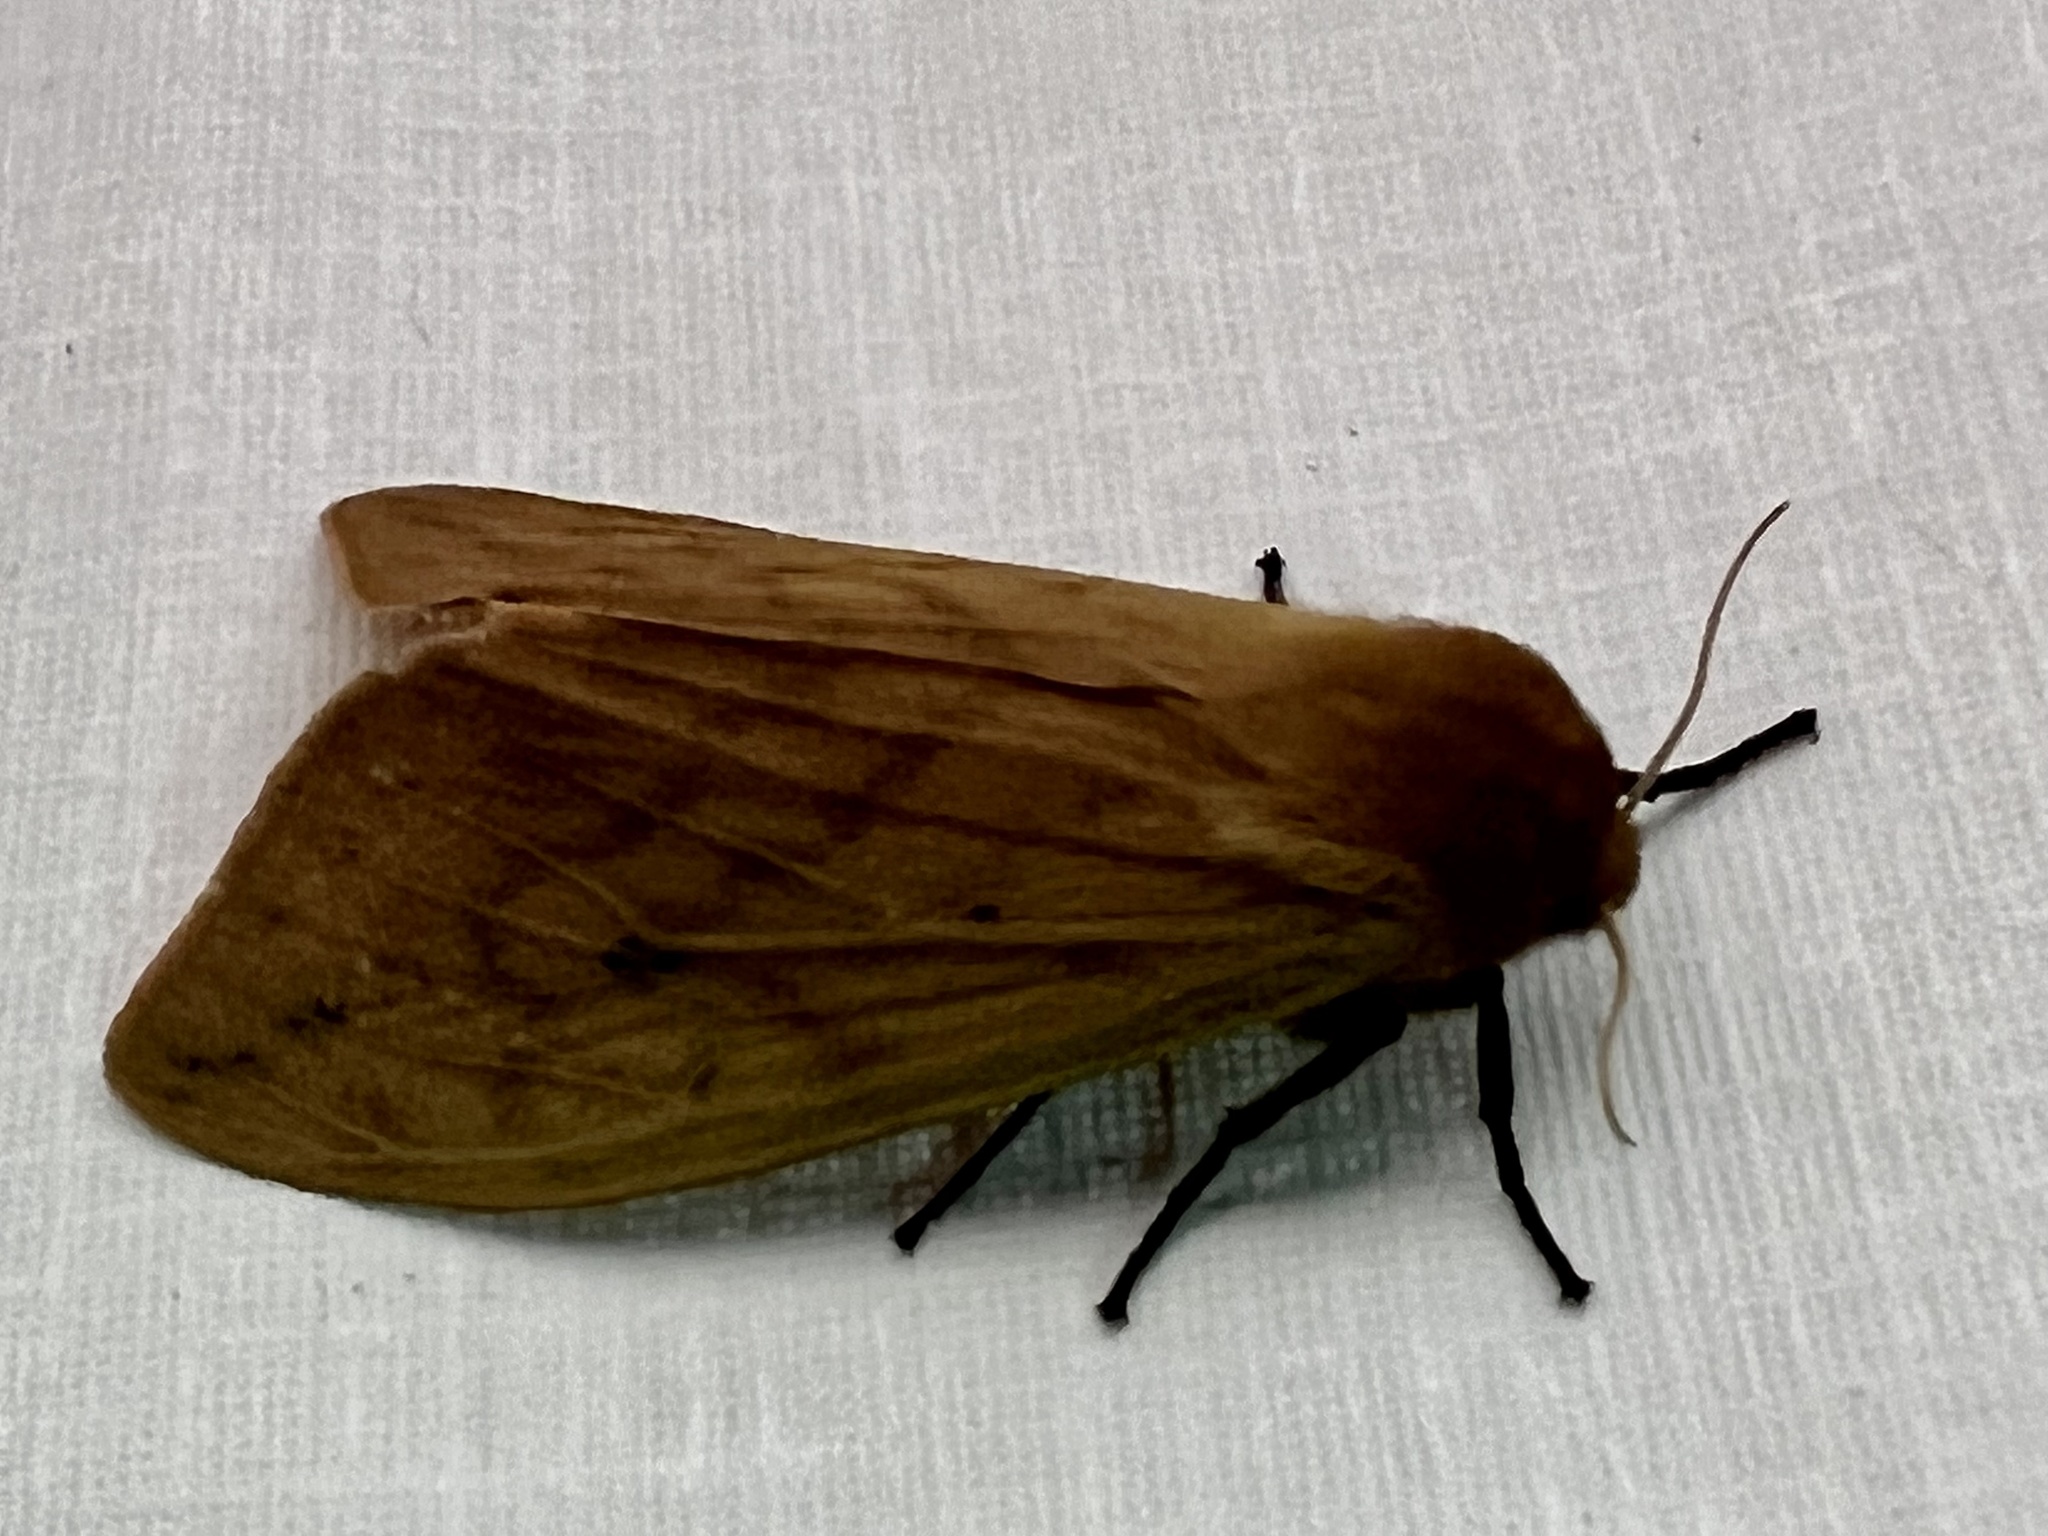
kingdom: Animalia
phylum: Arthropoda
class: Insecta
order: Lepidoptera
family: Erebidae
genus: Pyrrharctia
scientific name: Pyrrharctia isabella
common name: Isabella tiger moth
